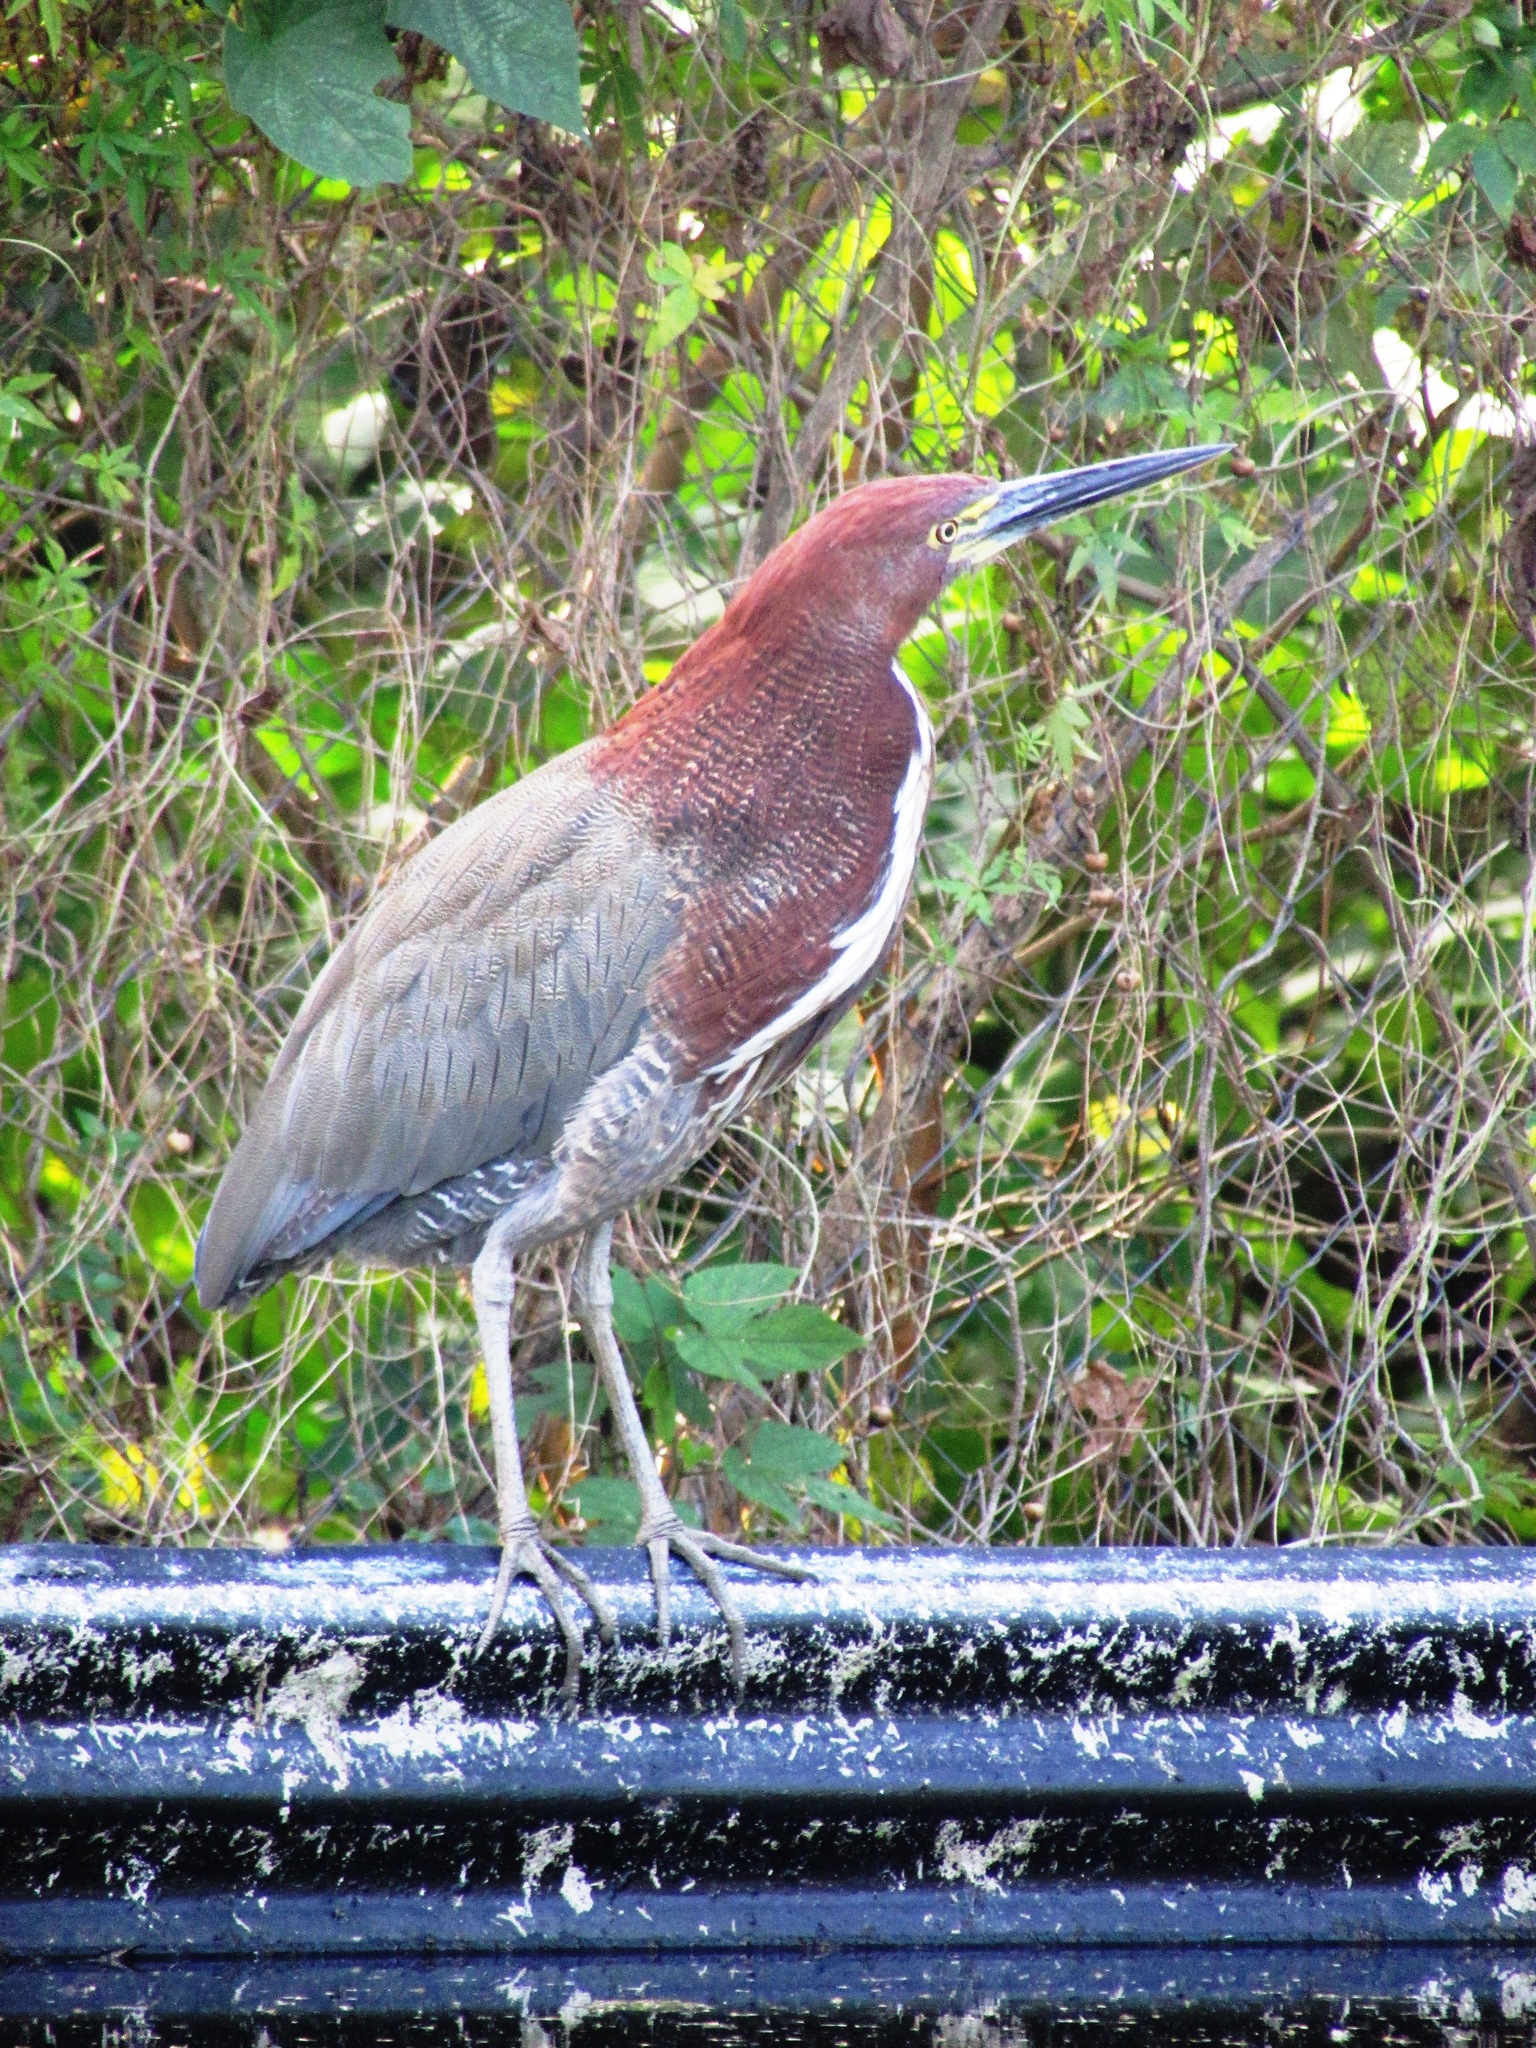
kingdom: Animalia
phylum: Chordata
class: Aves
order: Pelecaniformes
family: Ardeidae
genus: Tigrisoma
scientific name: Tigrisoma lineatum
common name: Rufescent tiger-heron
